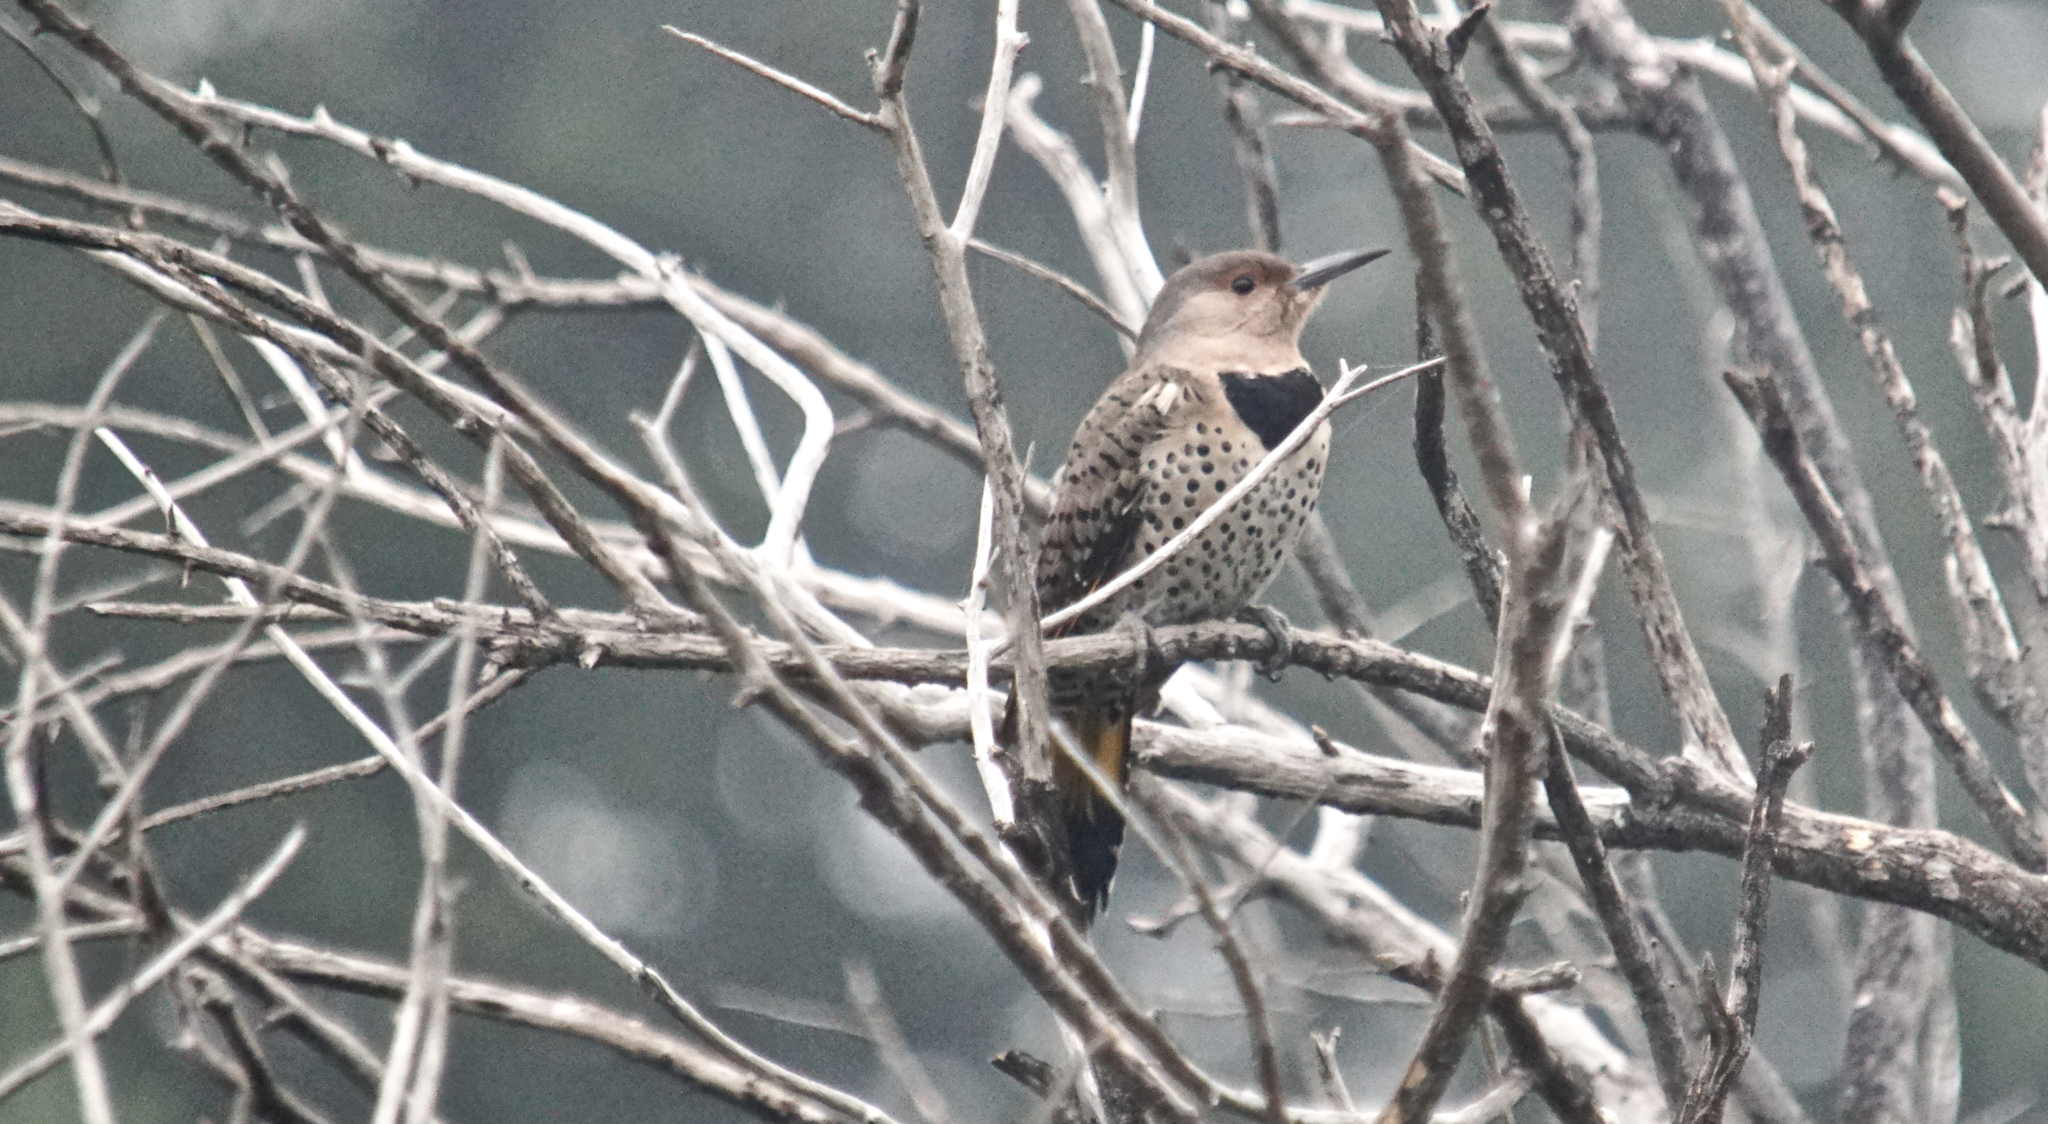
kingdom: Animalia
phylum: Chordata
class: Aves
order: Piciformes
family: Picidae
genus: Colaptes
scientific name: Colaptes auratus
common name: Northern flicker
